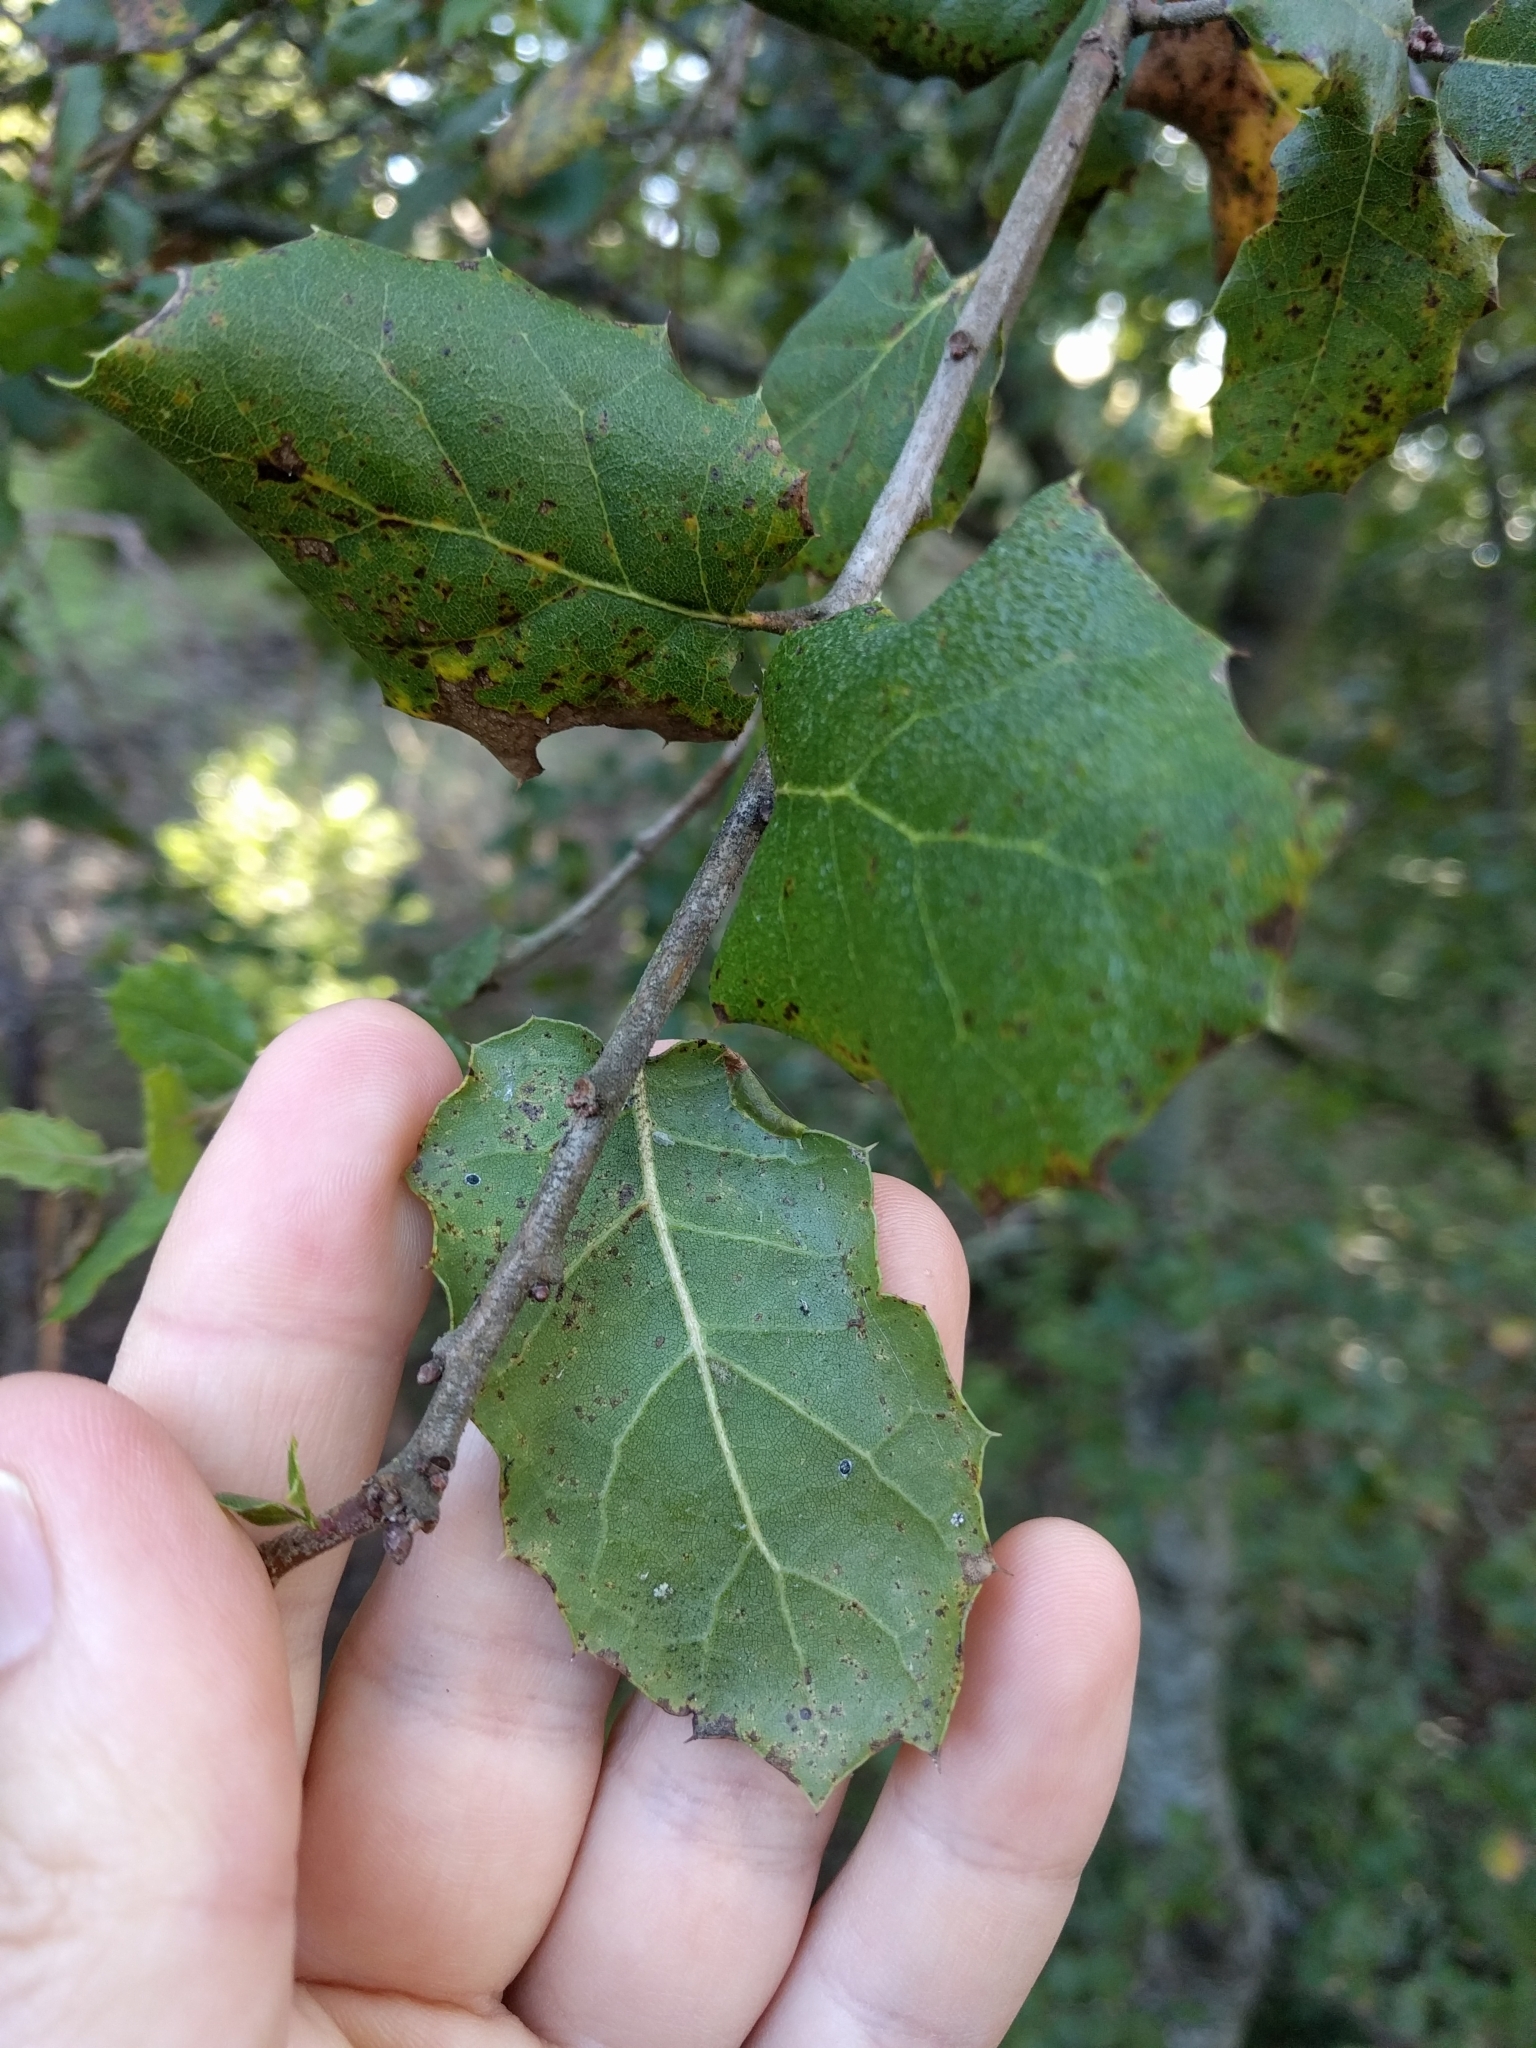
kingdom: Plantae
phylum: Tracheophyta
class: Magnoliopsida
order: Fagales
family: Fagaceae
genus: Quercus
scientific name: Quercus agrifolia
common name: California live oak
